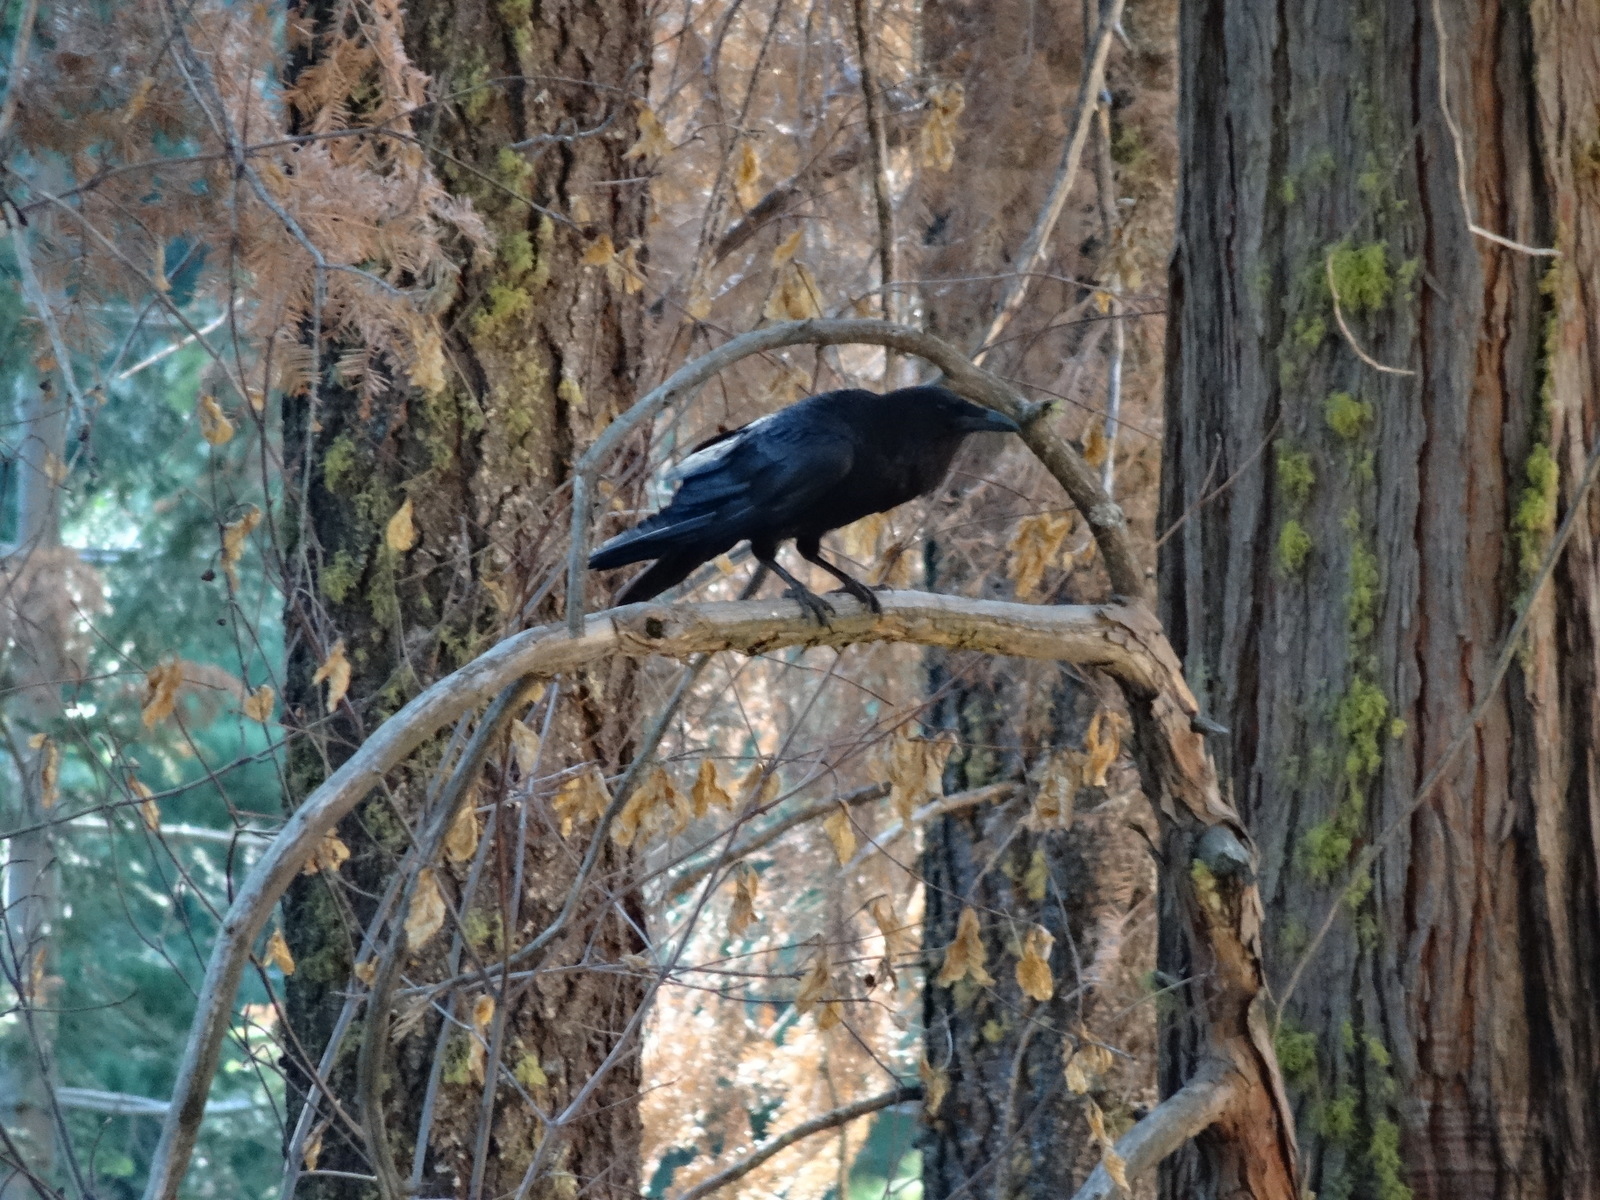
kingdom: Animalia
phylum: Chordata
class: Aves
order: Passeriformes
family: Corvidae
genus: Corvus
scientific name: Corvus corax
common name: Common raven
